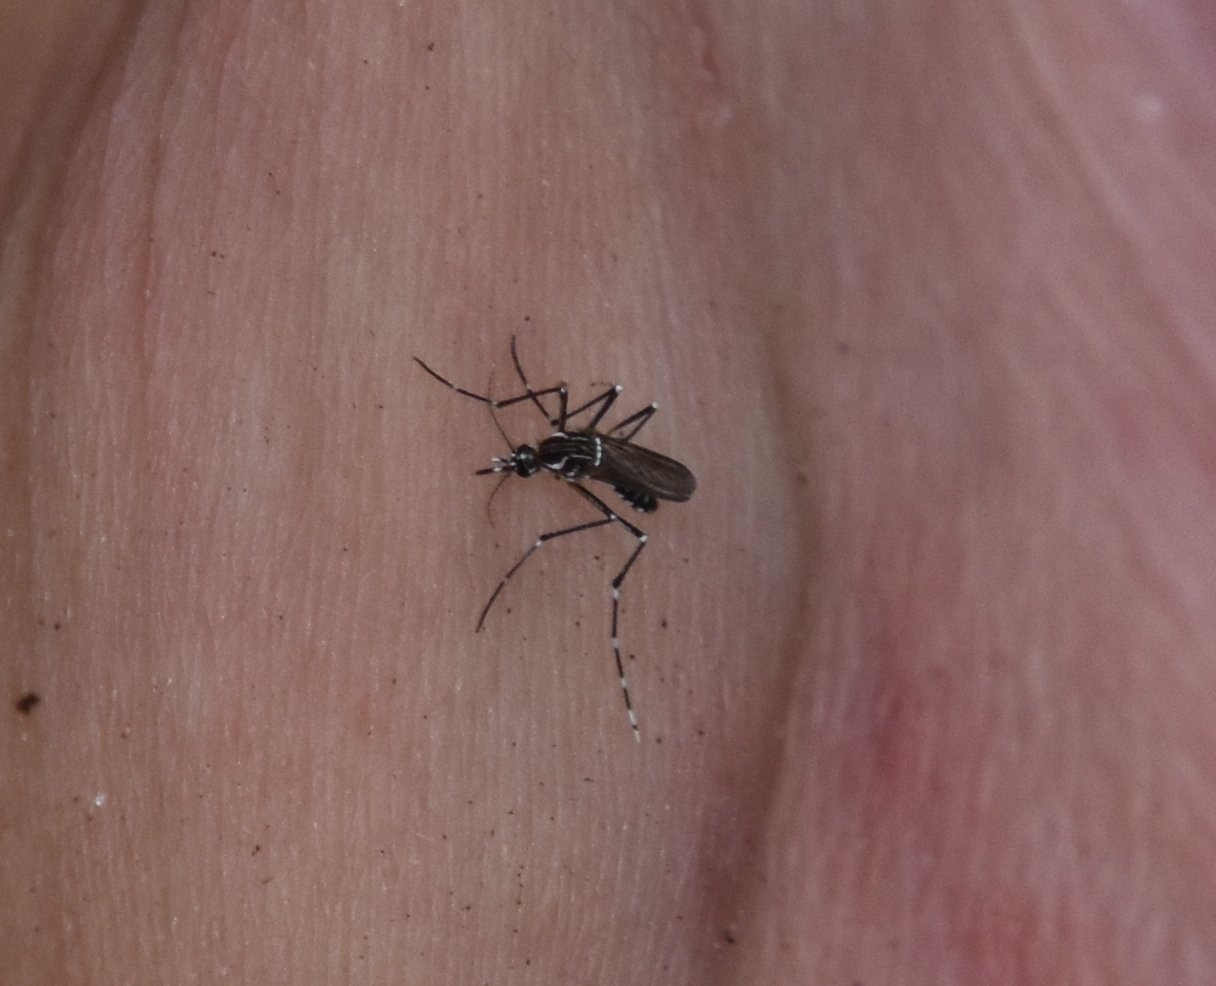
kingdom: Animalia
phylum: Arthropoda
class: Insecta
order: Diptera
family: Culicidae
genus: Aedes
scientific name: Aedes aegypti
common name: Yellow fever mosquito
